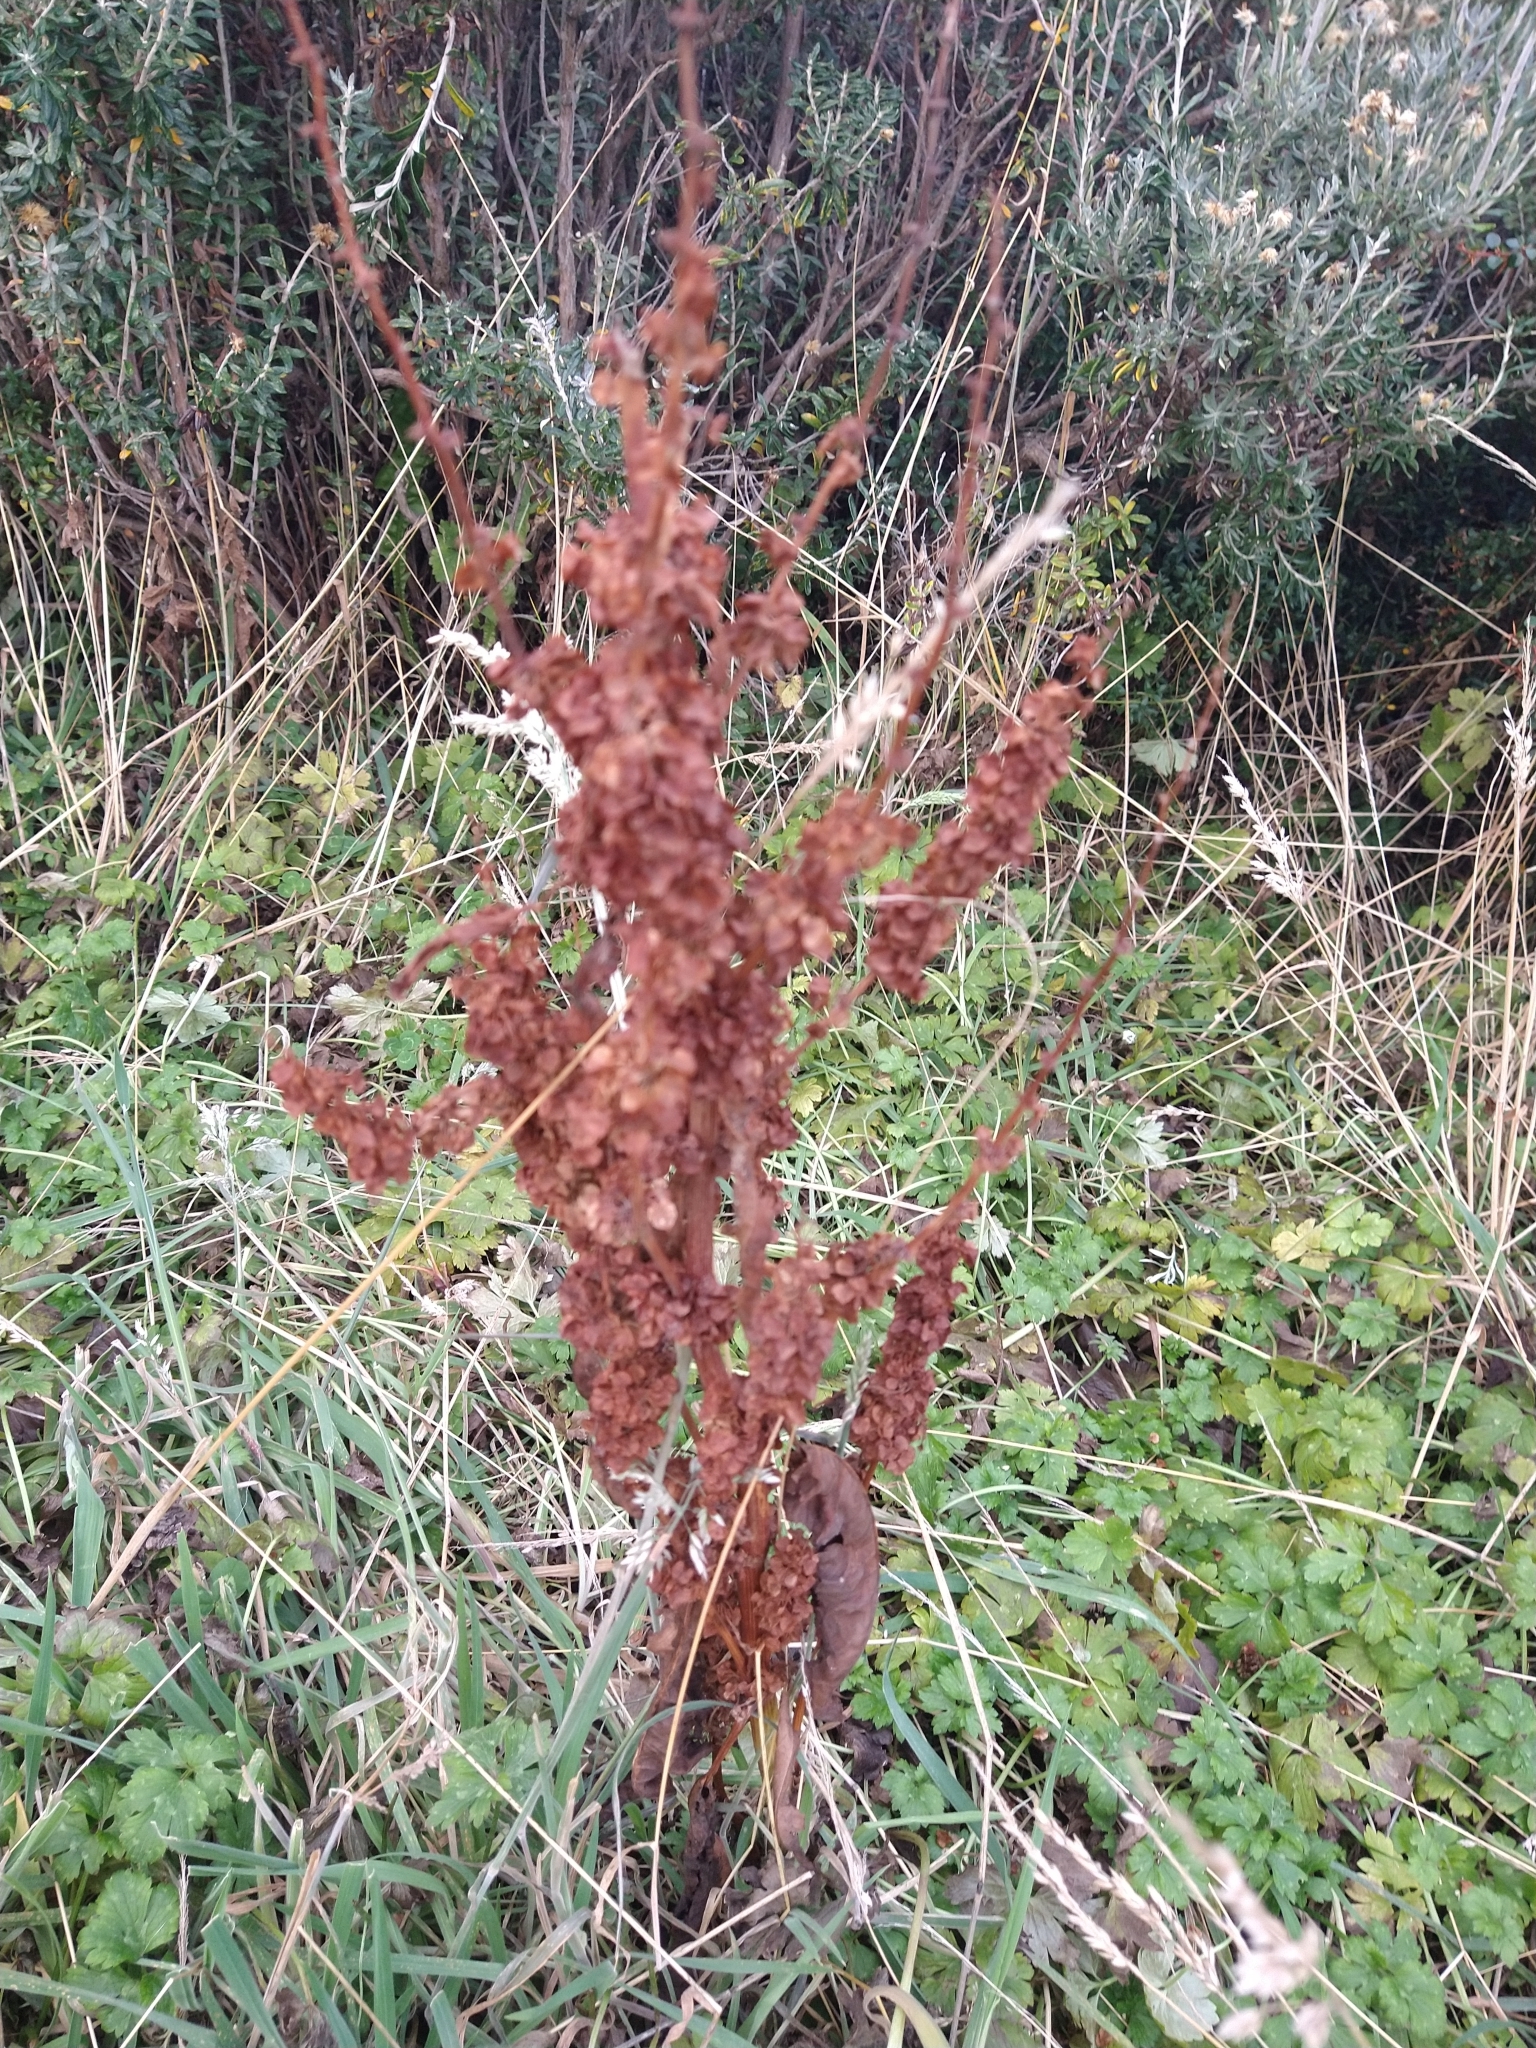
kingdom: Plantae
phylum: Tracheophyta
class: Magnoliopsida
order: Caryophyllales
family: Polygonaceae
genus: Rumex
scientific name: Rumex crispus
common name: Curled dock
